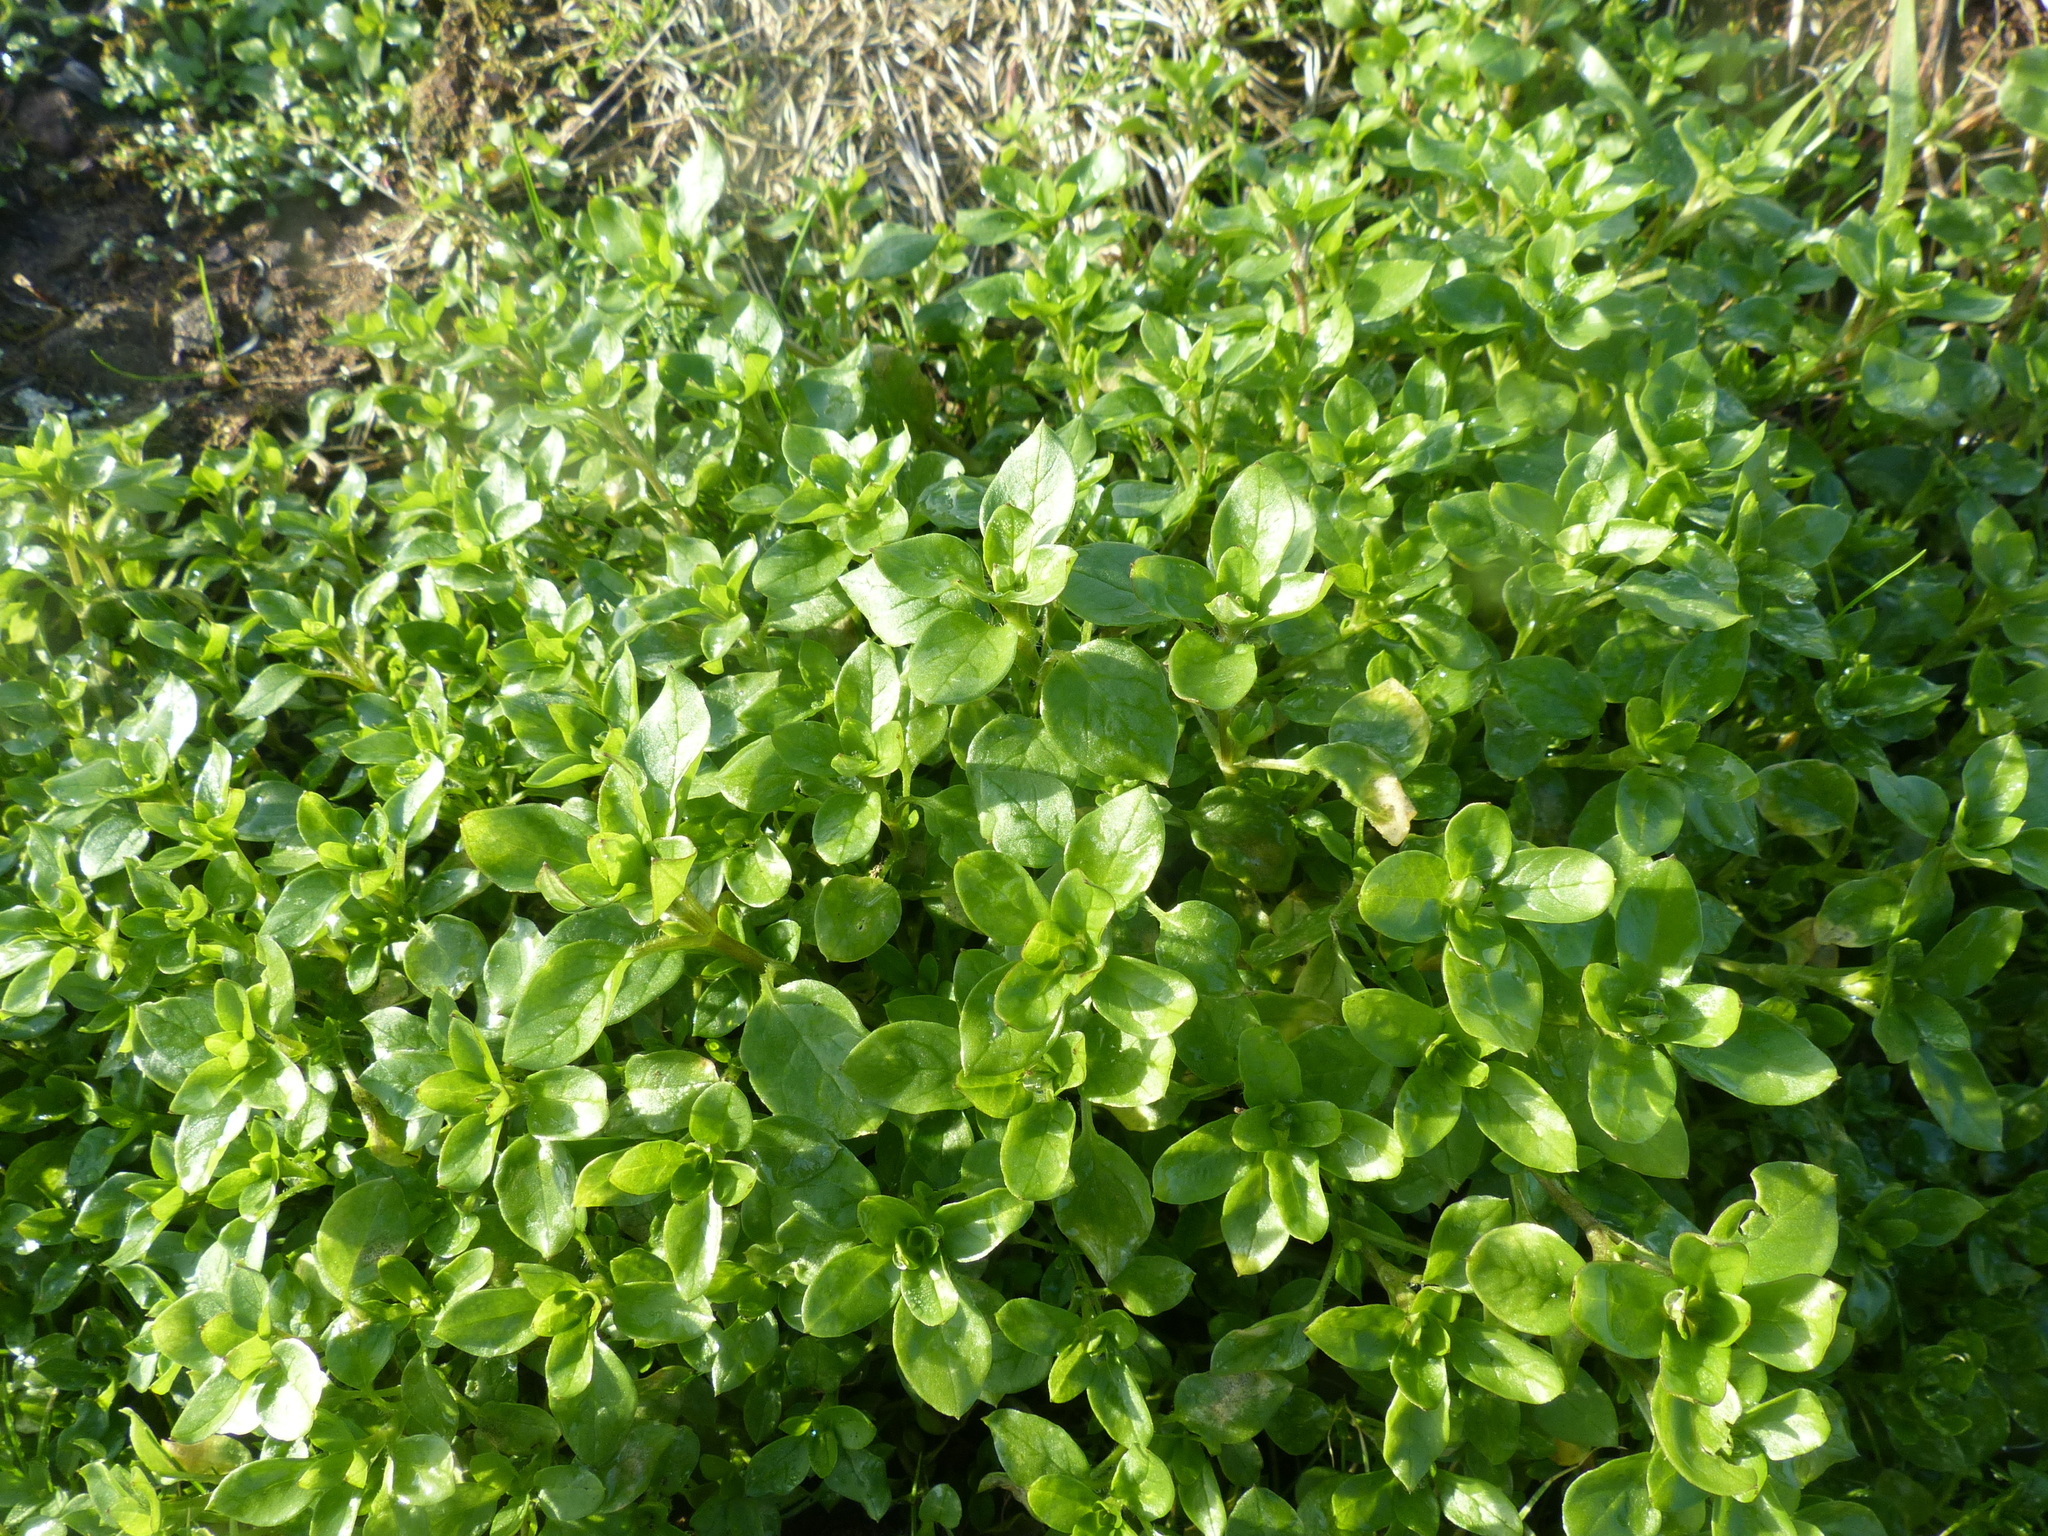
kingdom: Plantae
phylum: Tracheophyta
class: Magnoliopsida
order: Caryophyllales
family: Caryophyllaceae
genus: Stellaria
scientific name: Stellaria media
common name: Common chickweed
